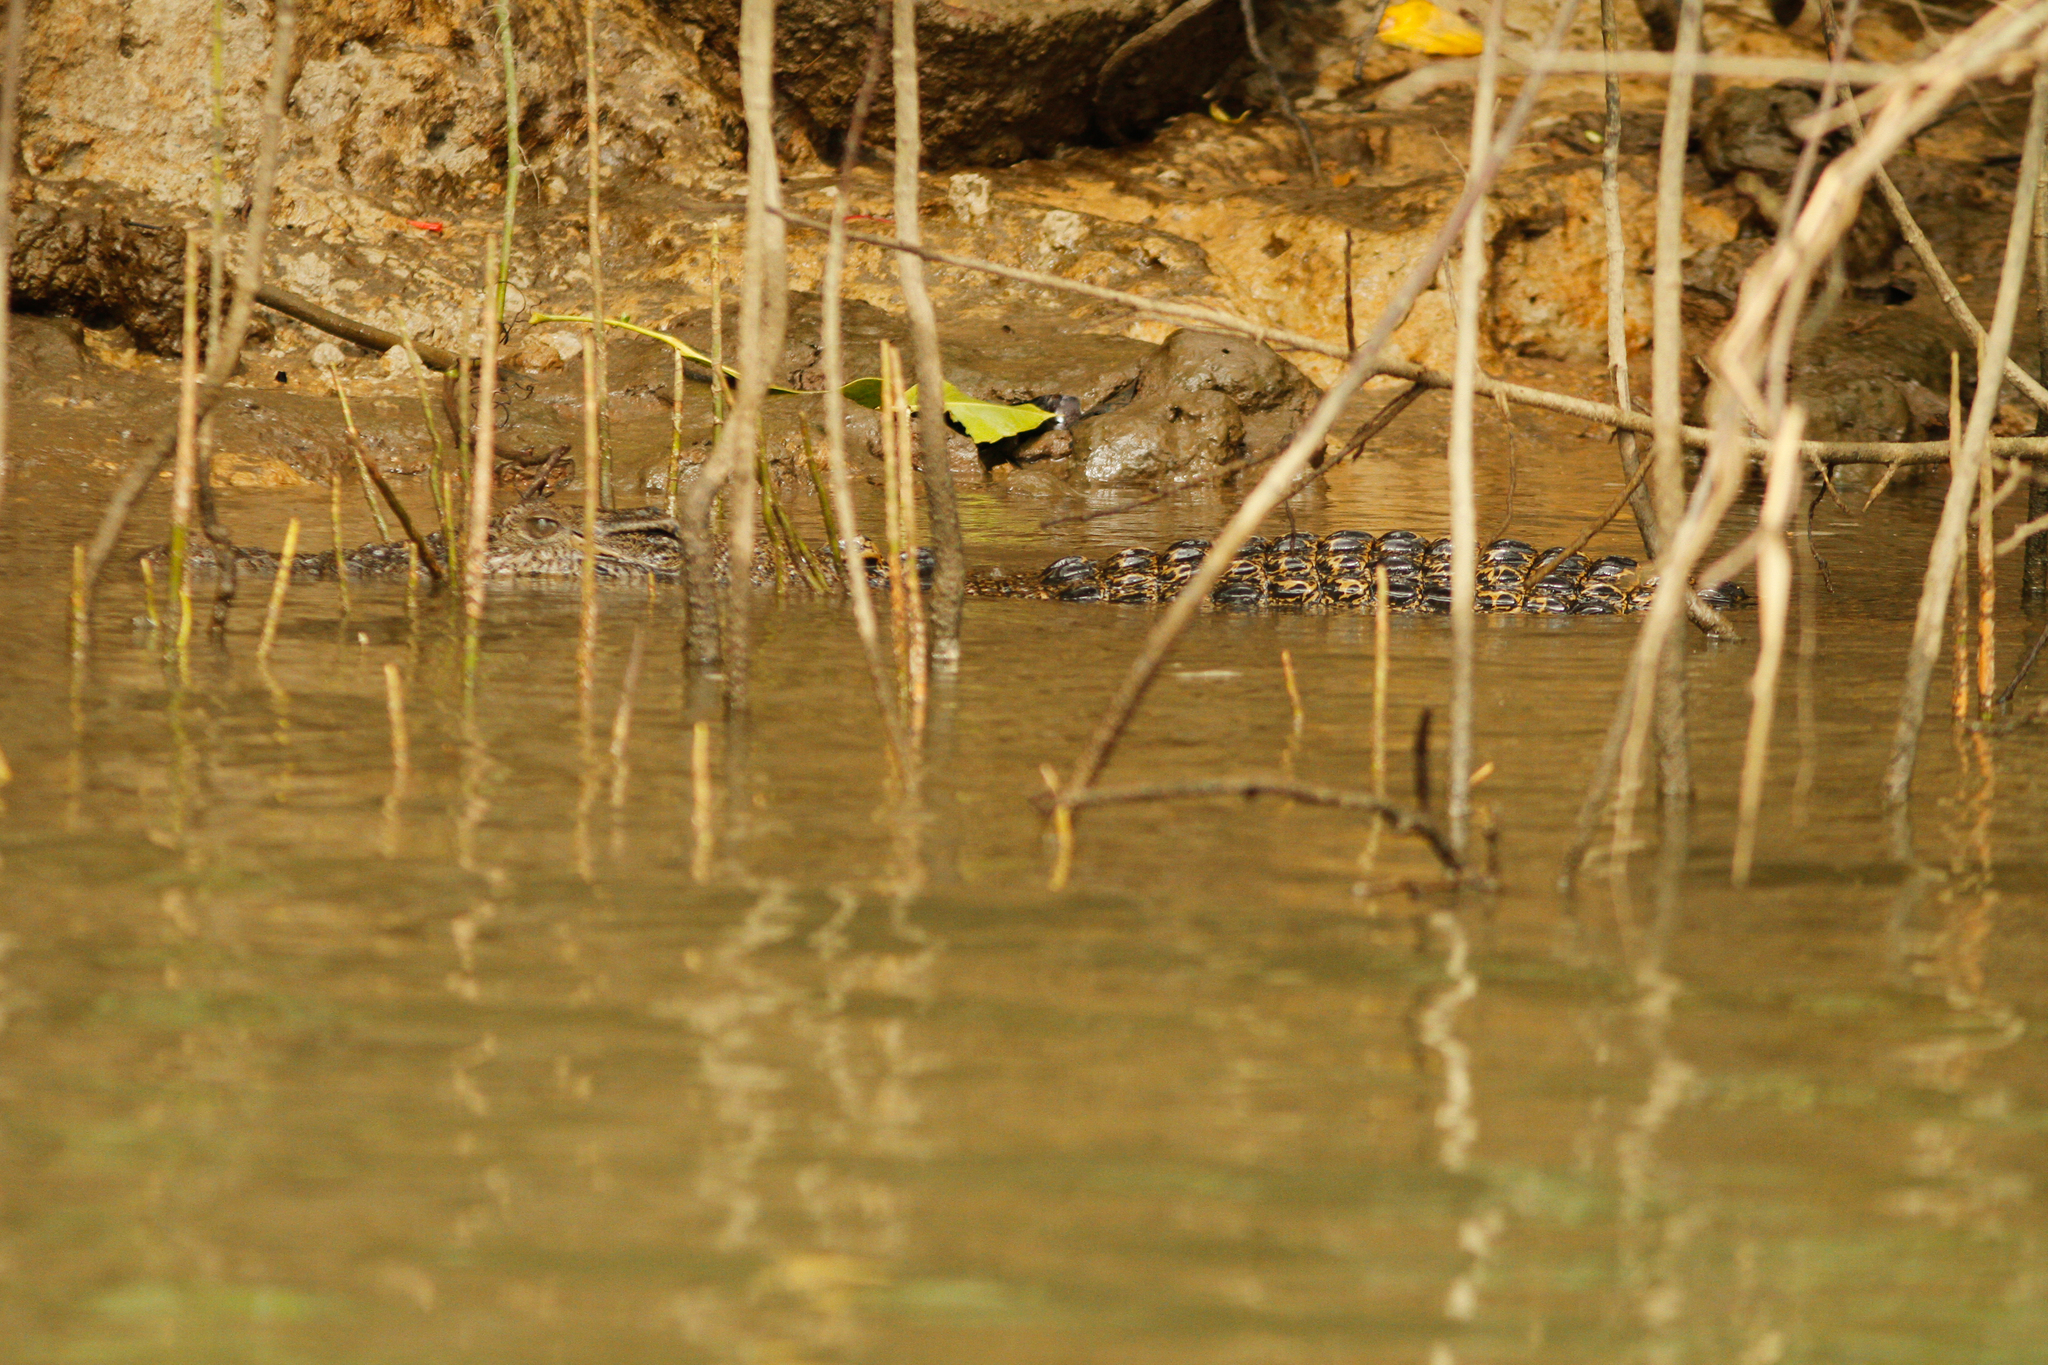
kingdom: Animalia
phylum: Chordata
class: Crocodylia
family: Crocodylidae
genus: Crocodylus
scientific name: Crocodylus porosus
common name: Saltwater crocodile
